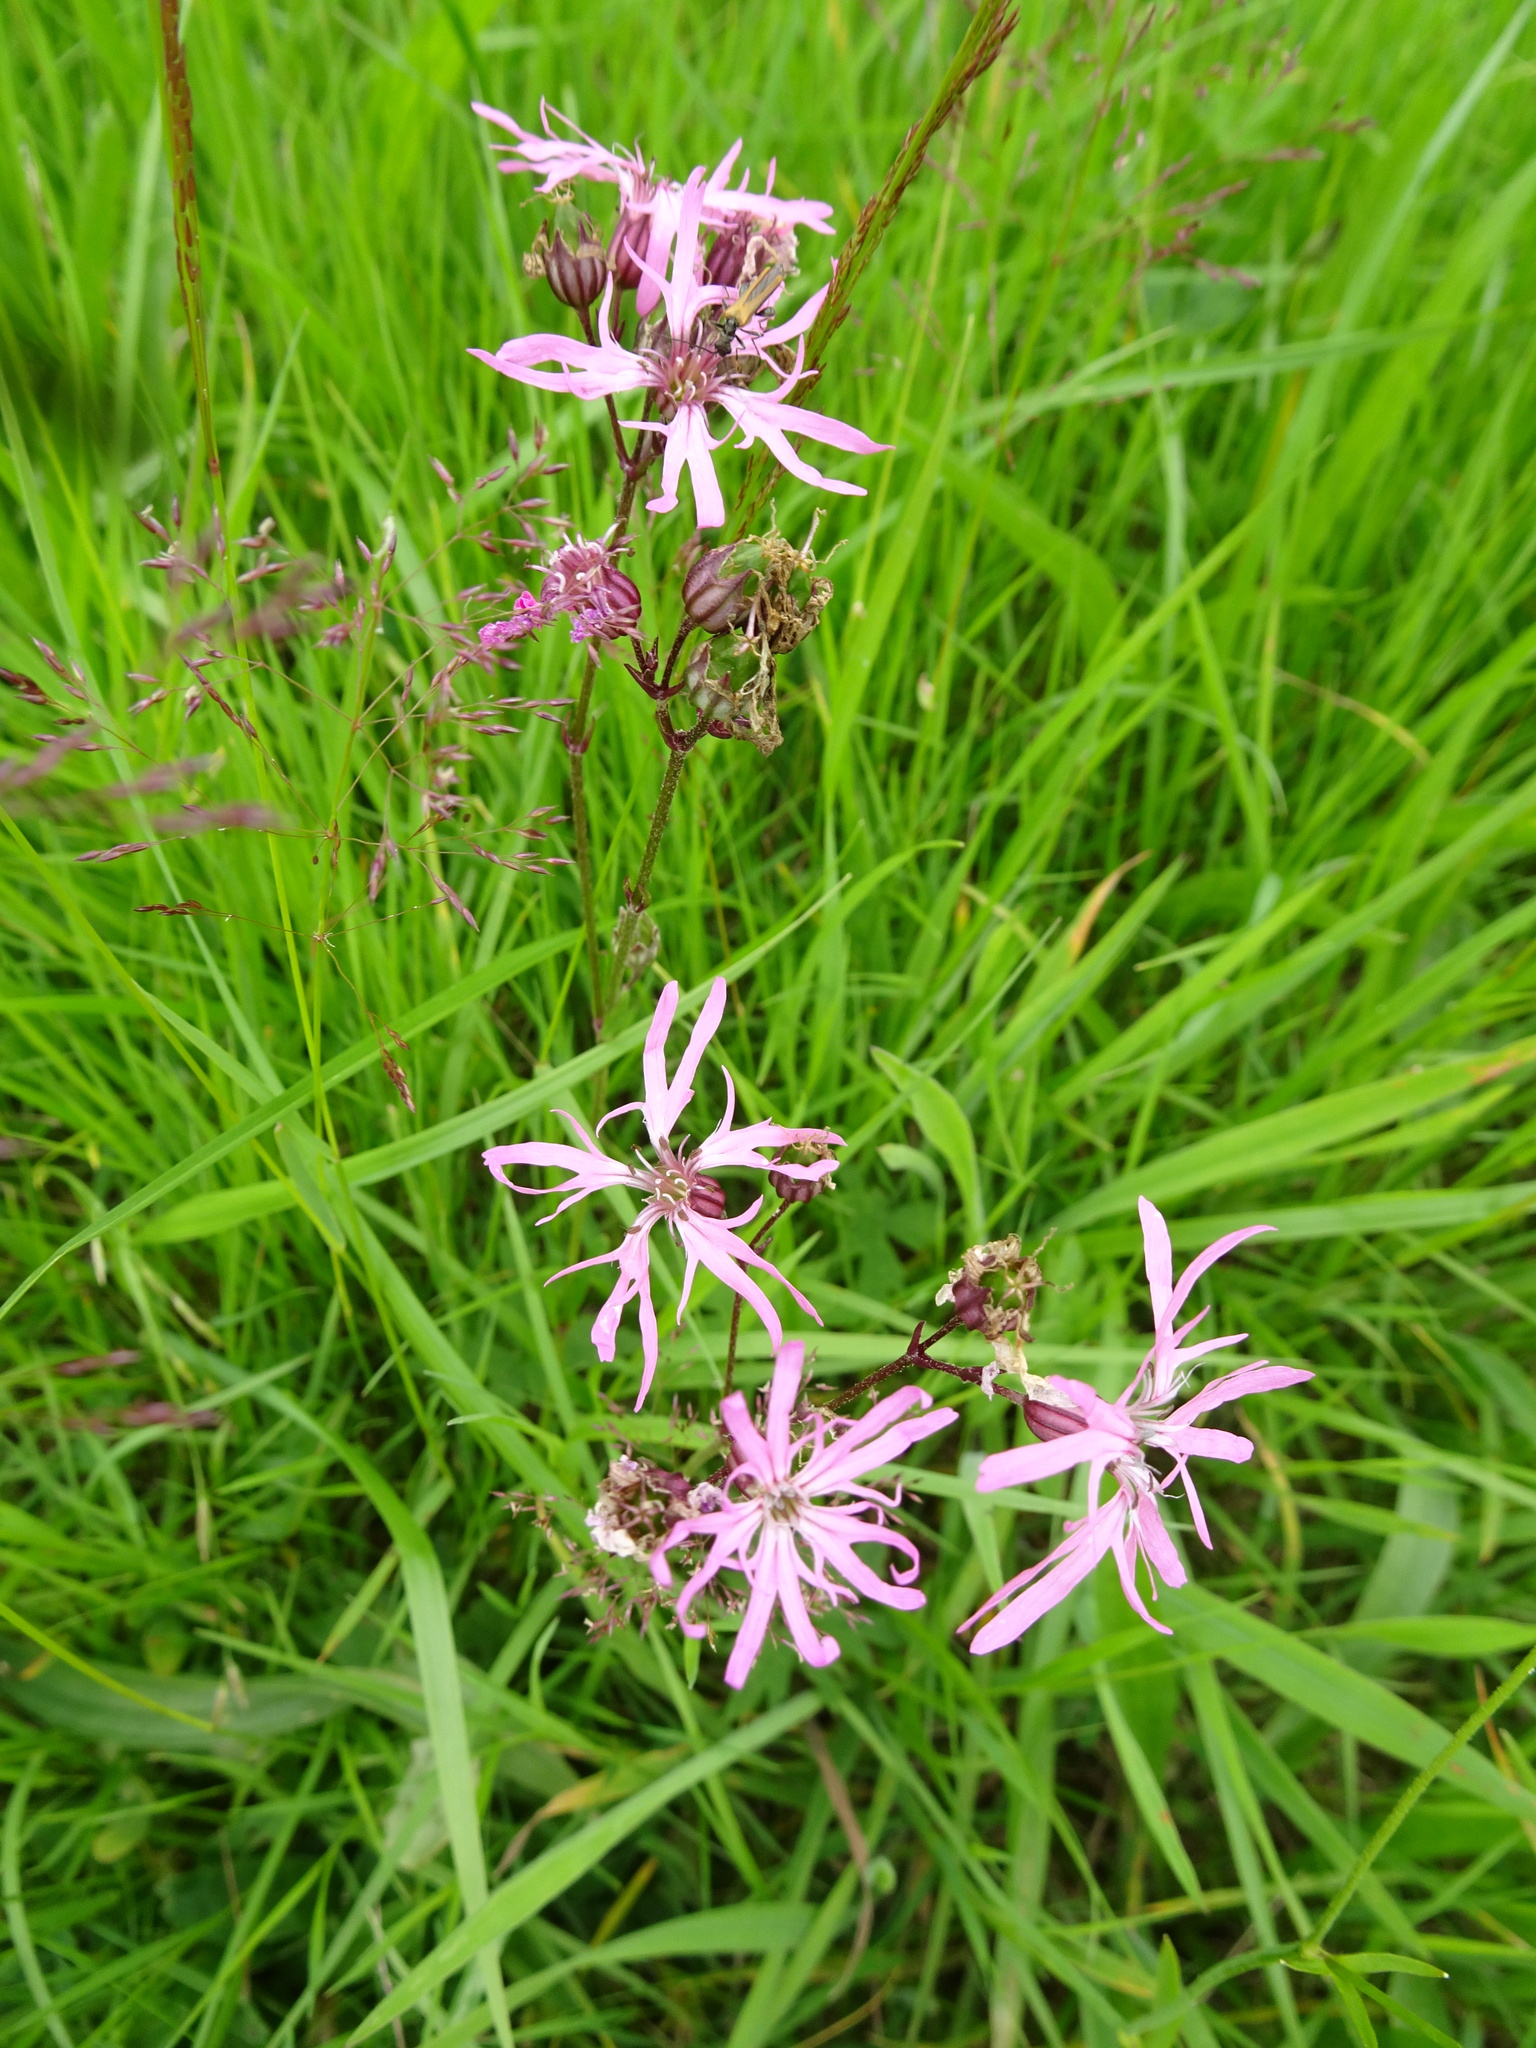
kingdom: Plantae
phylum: Tracheophyta
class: Magnoliopsida
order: Caryophyllales
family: Caryophyllaceae
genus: Silene
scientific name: Silene flos-cuculi
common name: Ragged-robin
